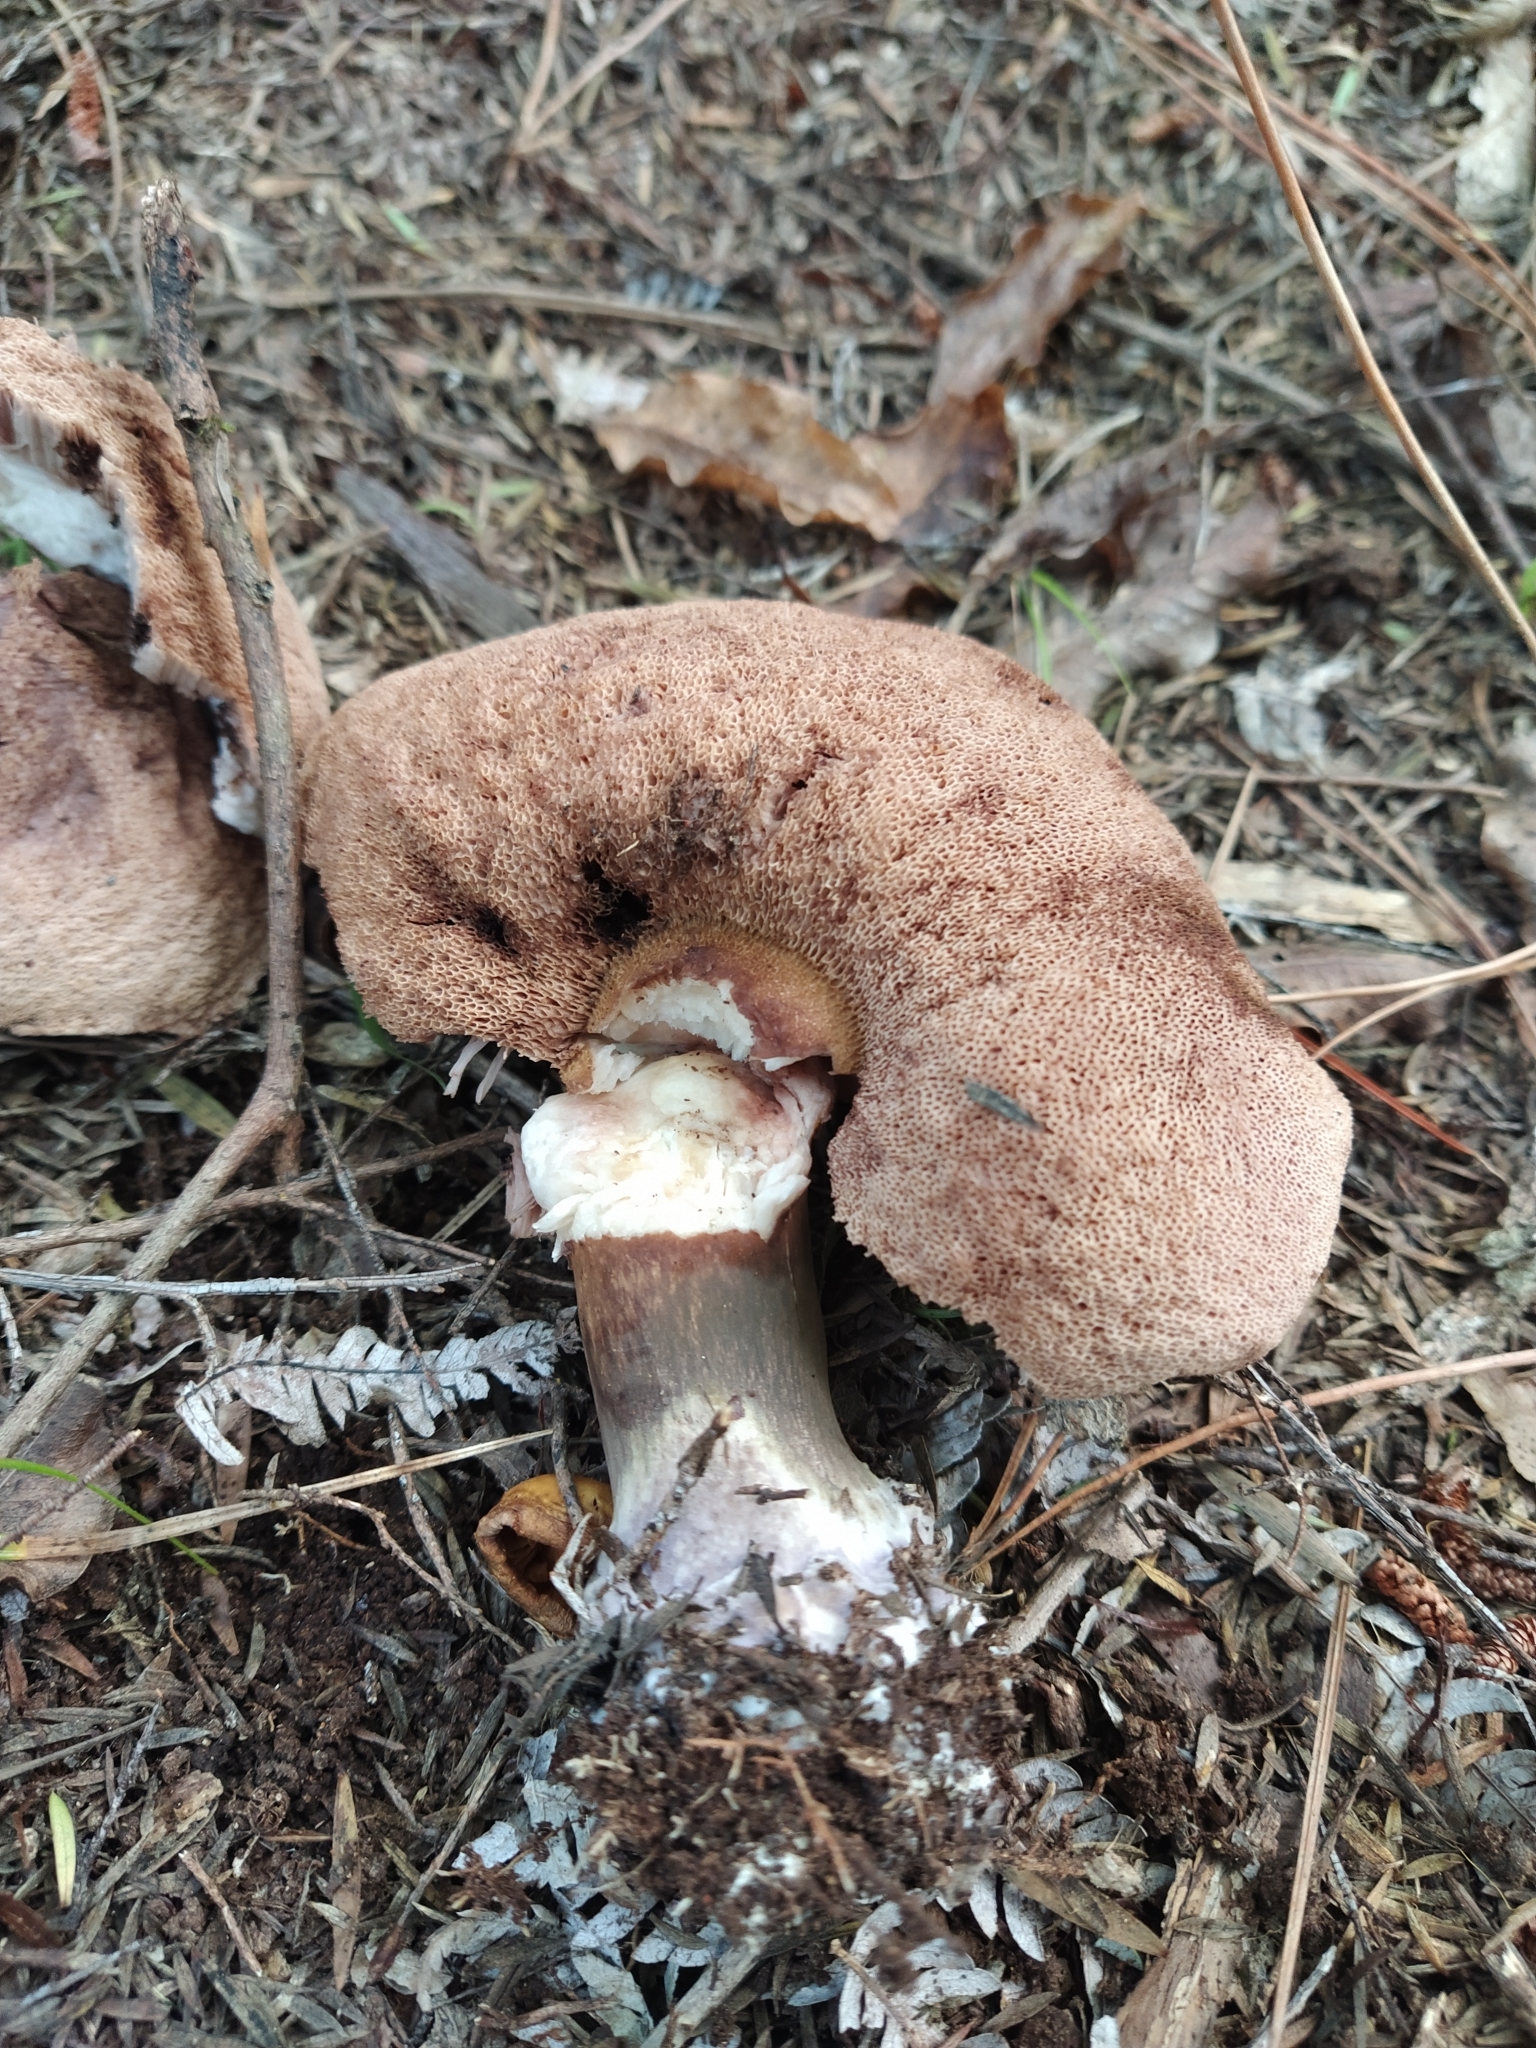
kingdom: Fungi
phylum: Basidiomycota
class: Agaricomycetes
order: Boletales
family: Boletaceae
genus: Porphyrellus
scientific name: Porphyrellus formosus
